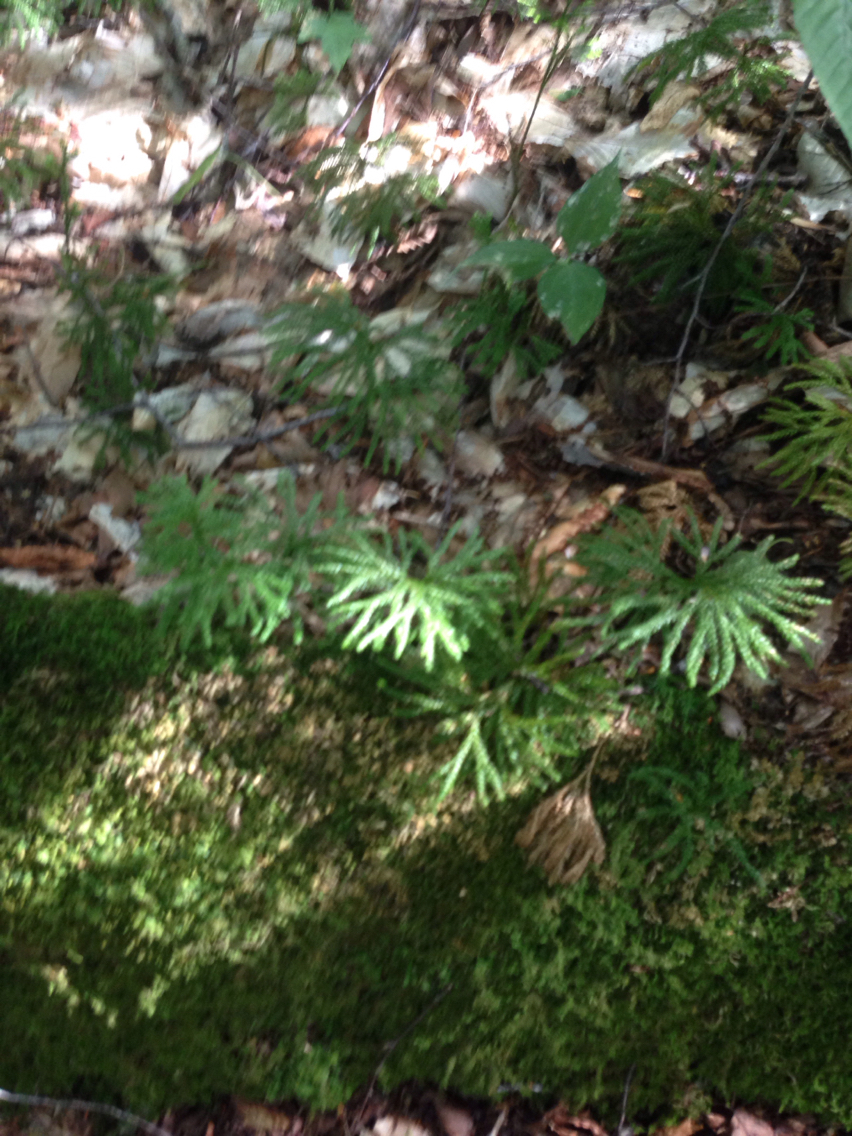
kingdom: Plantae
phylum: Tracheophyta
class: Lycopodiopsida
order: Lycopodiales
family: Lycopodiaceae
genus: Diphasiastrum
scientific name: Diphasiastrum digitatum
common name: Southern running-pine
